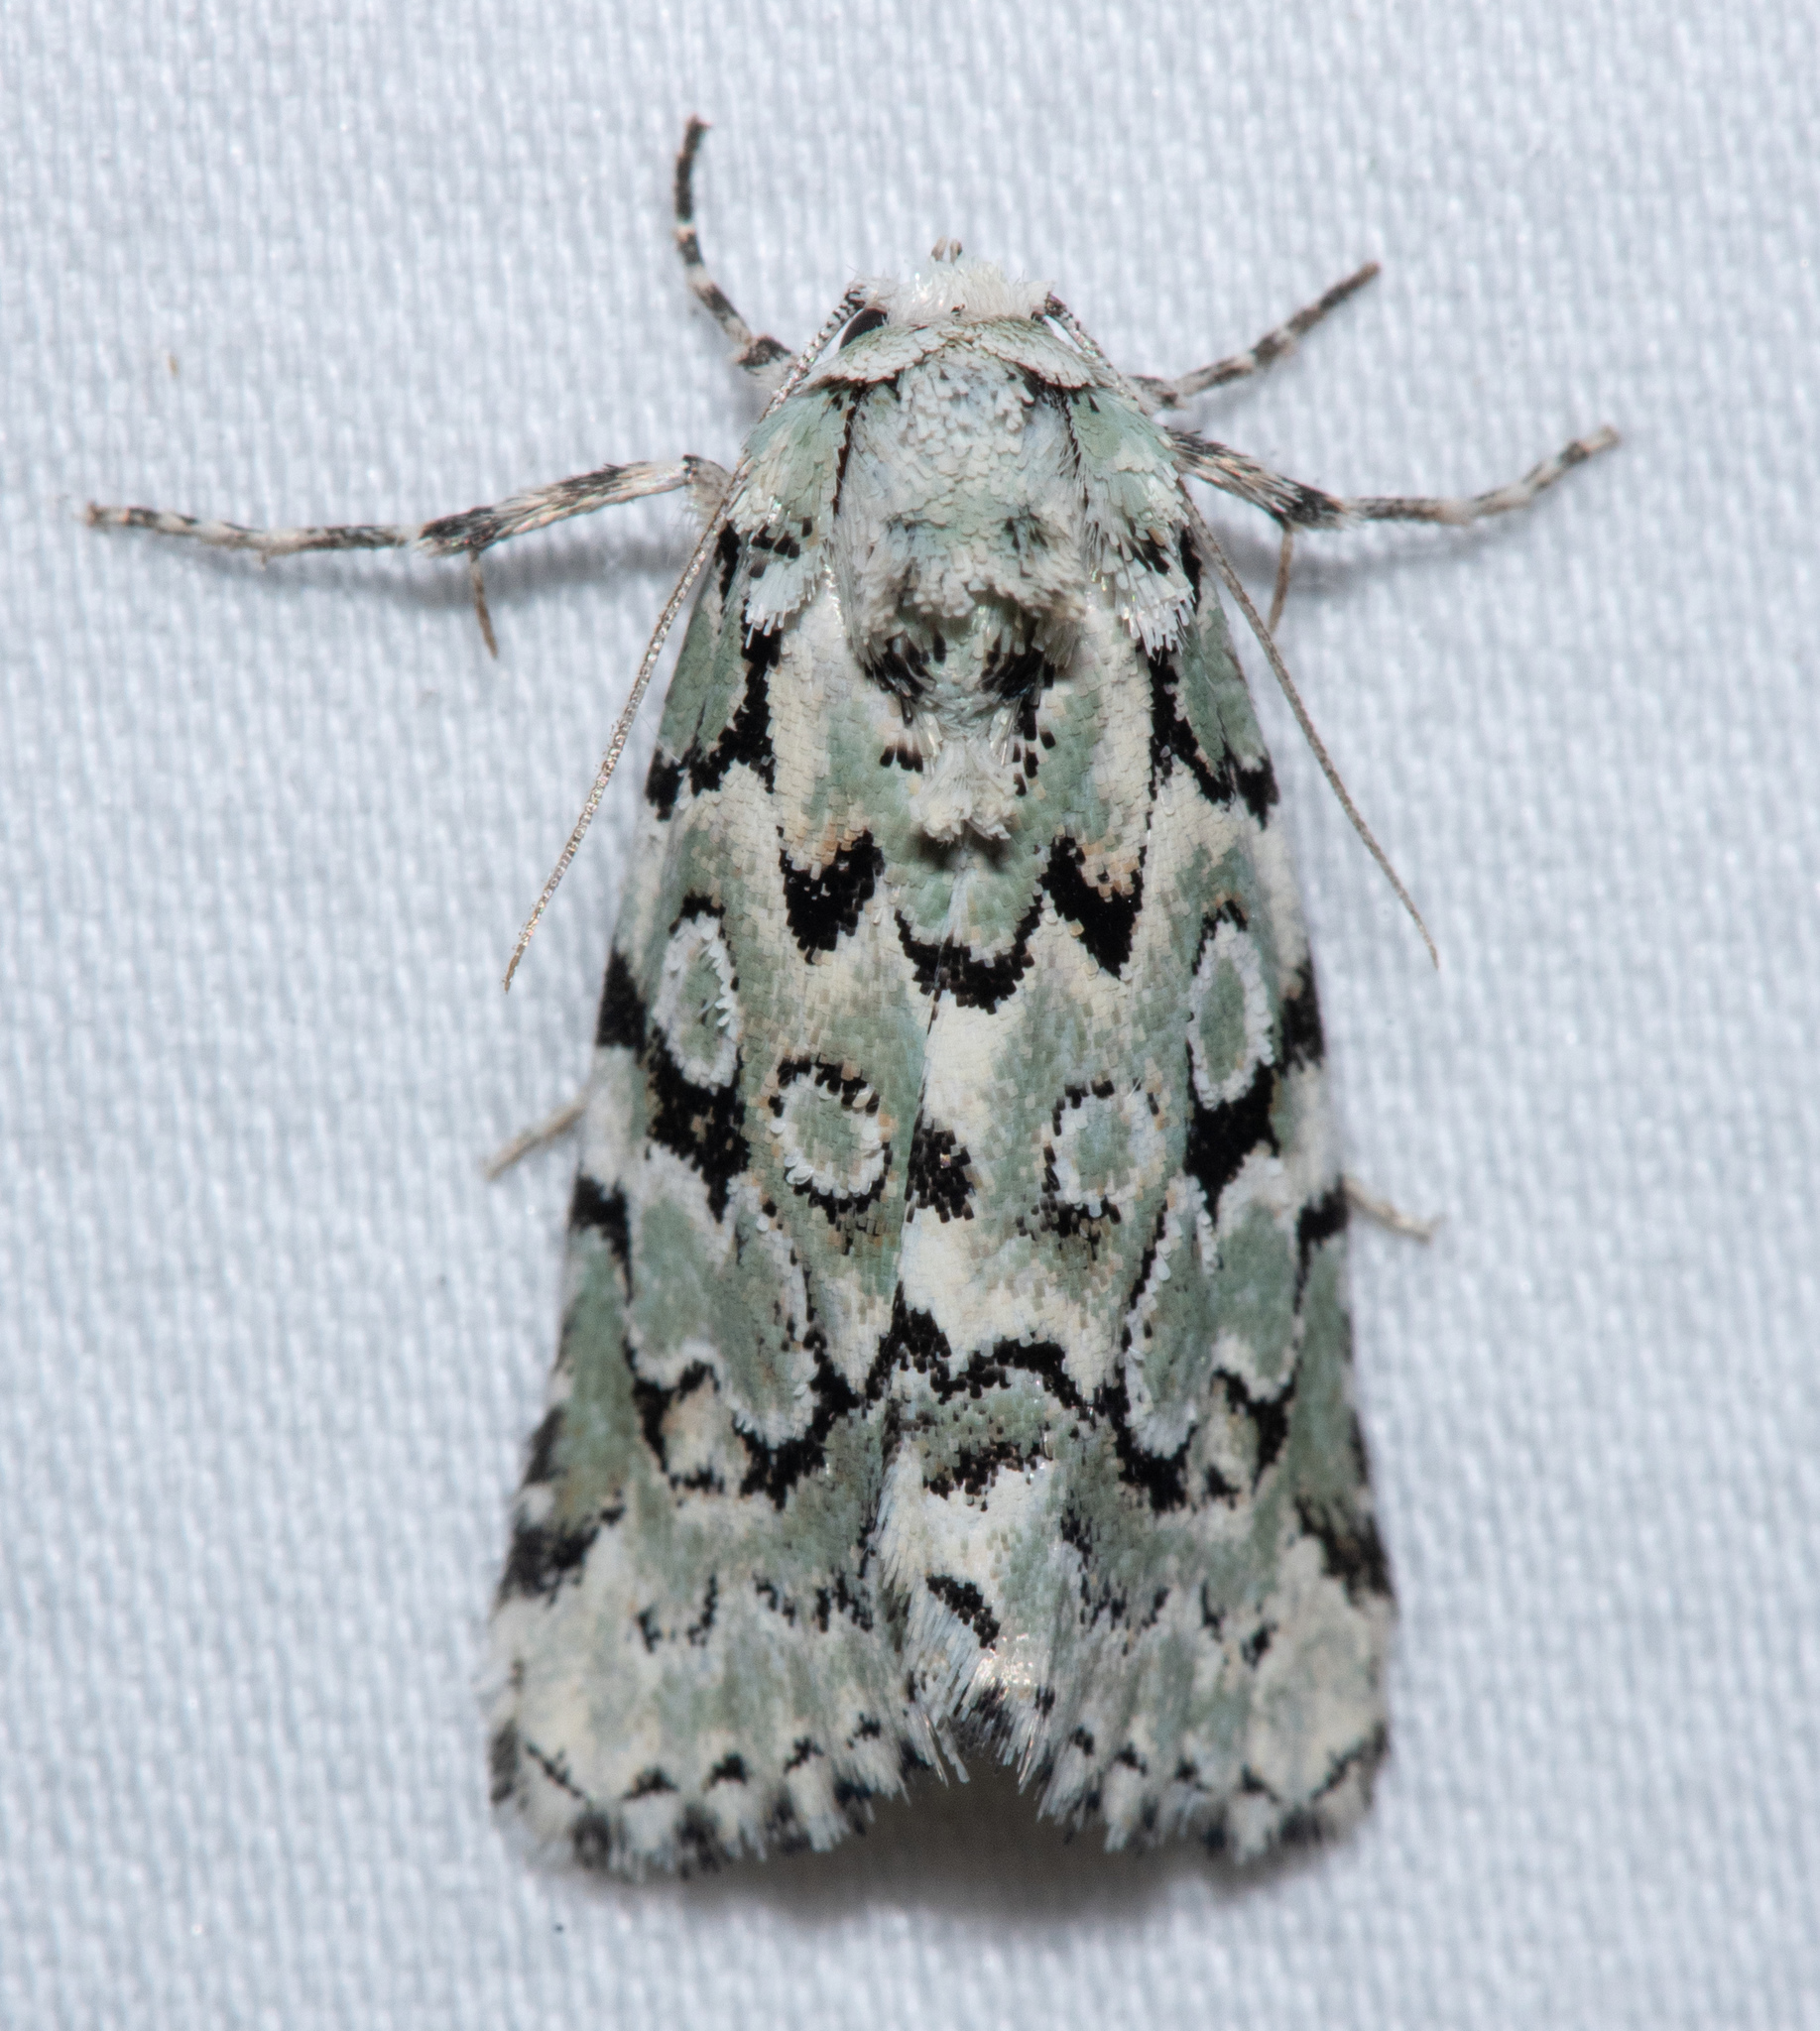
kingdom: Animalia
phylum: Arthropoda
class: Insecta
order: Lepidoptera
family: Noctuidae
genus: Bryolymnia
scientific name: Bryolymnia viridata
